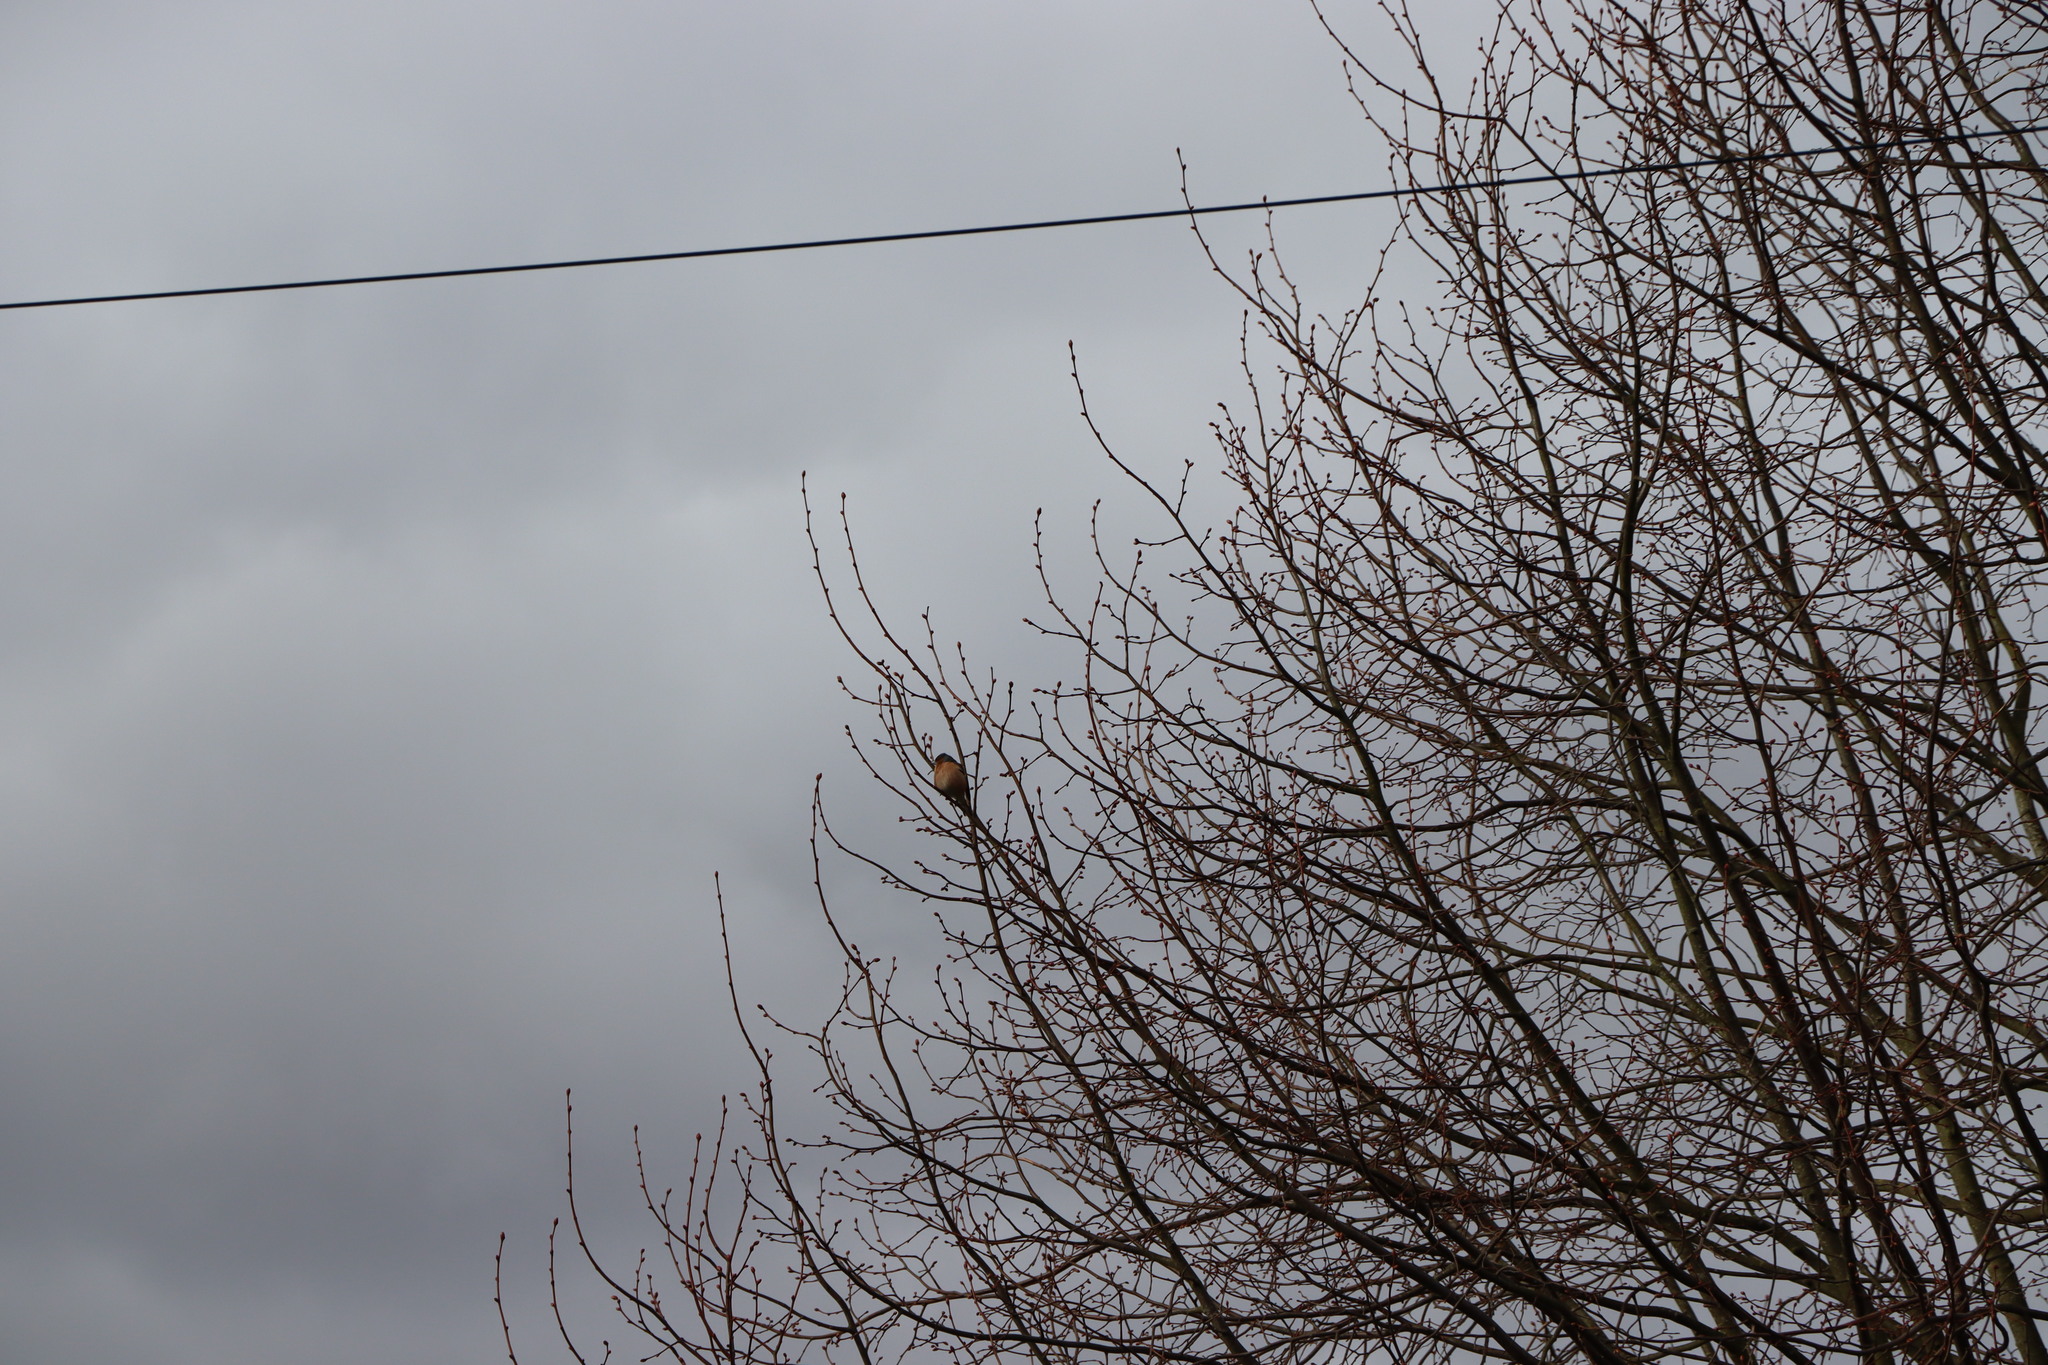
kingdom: Animalia
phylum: Chordata
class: Aves
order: Passeriformes
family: Fringillidae
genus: Fringilla
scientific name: Fringilla coelebs
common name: Common chaffinch
